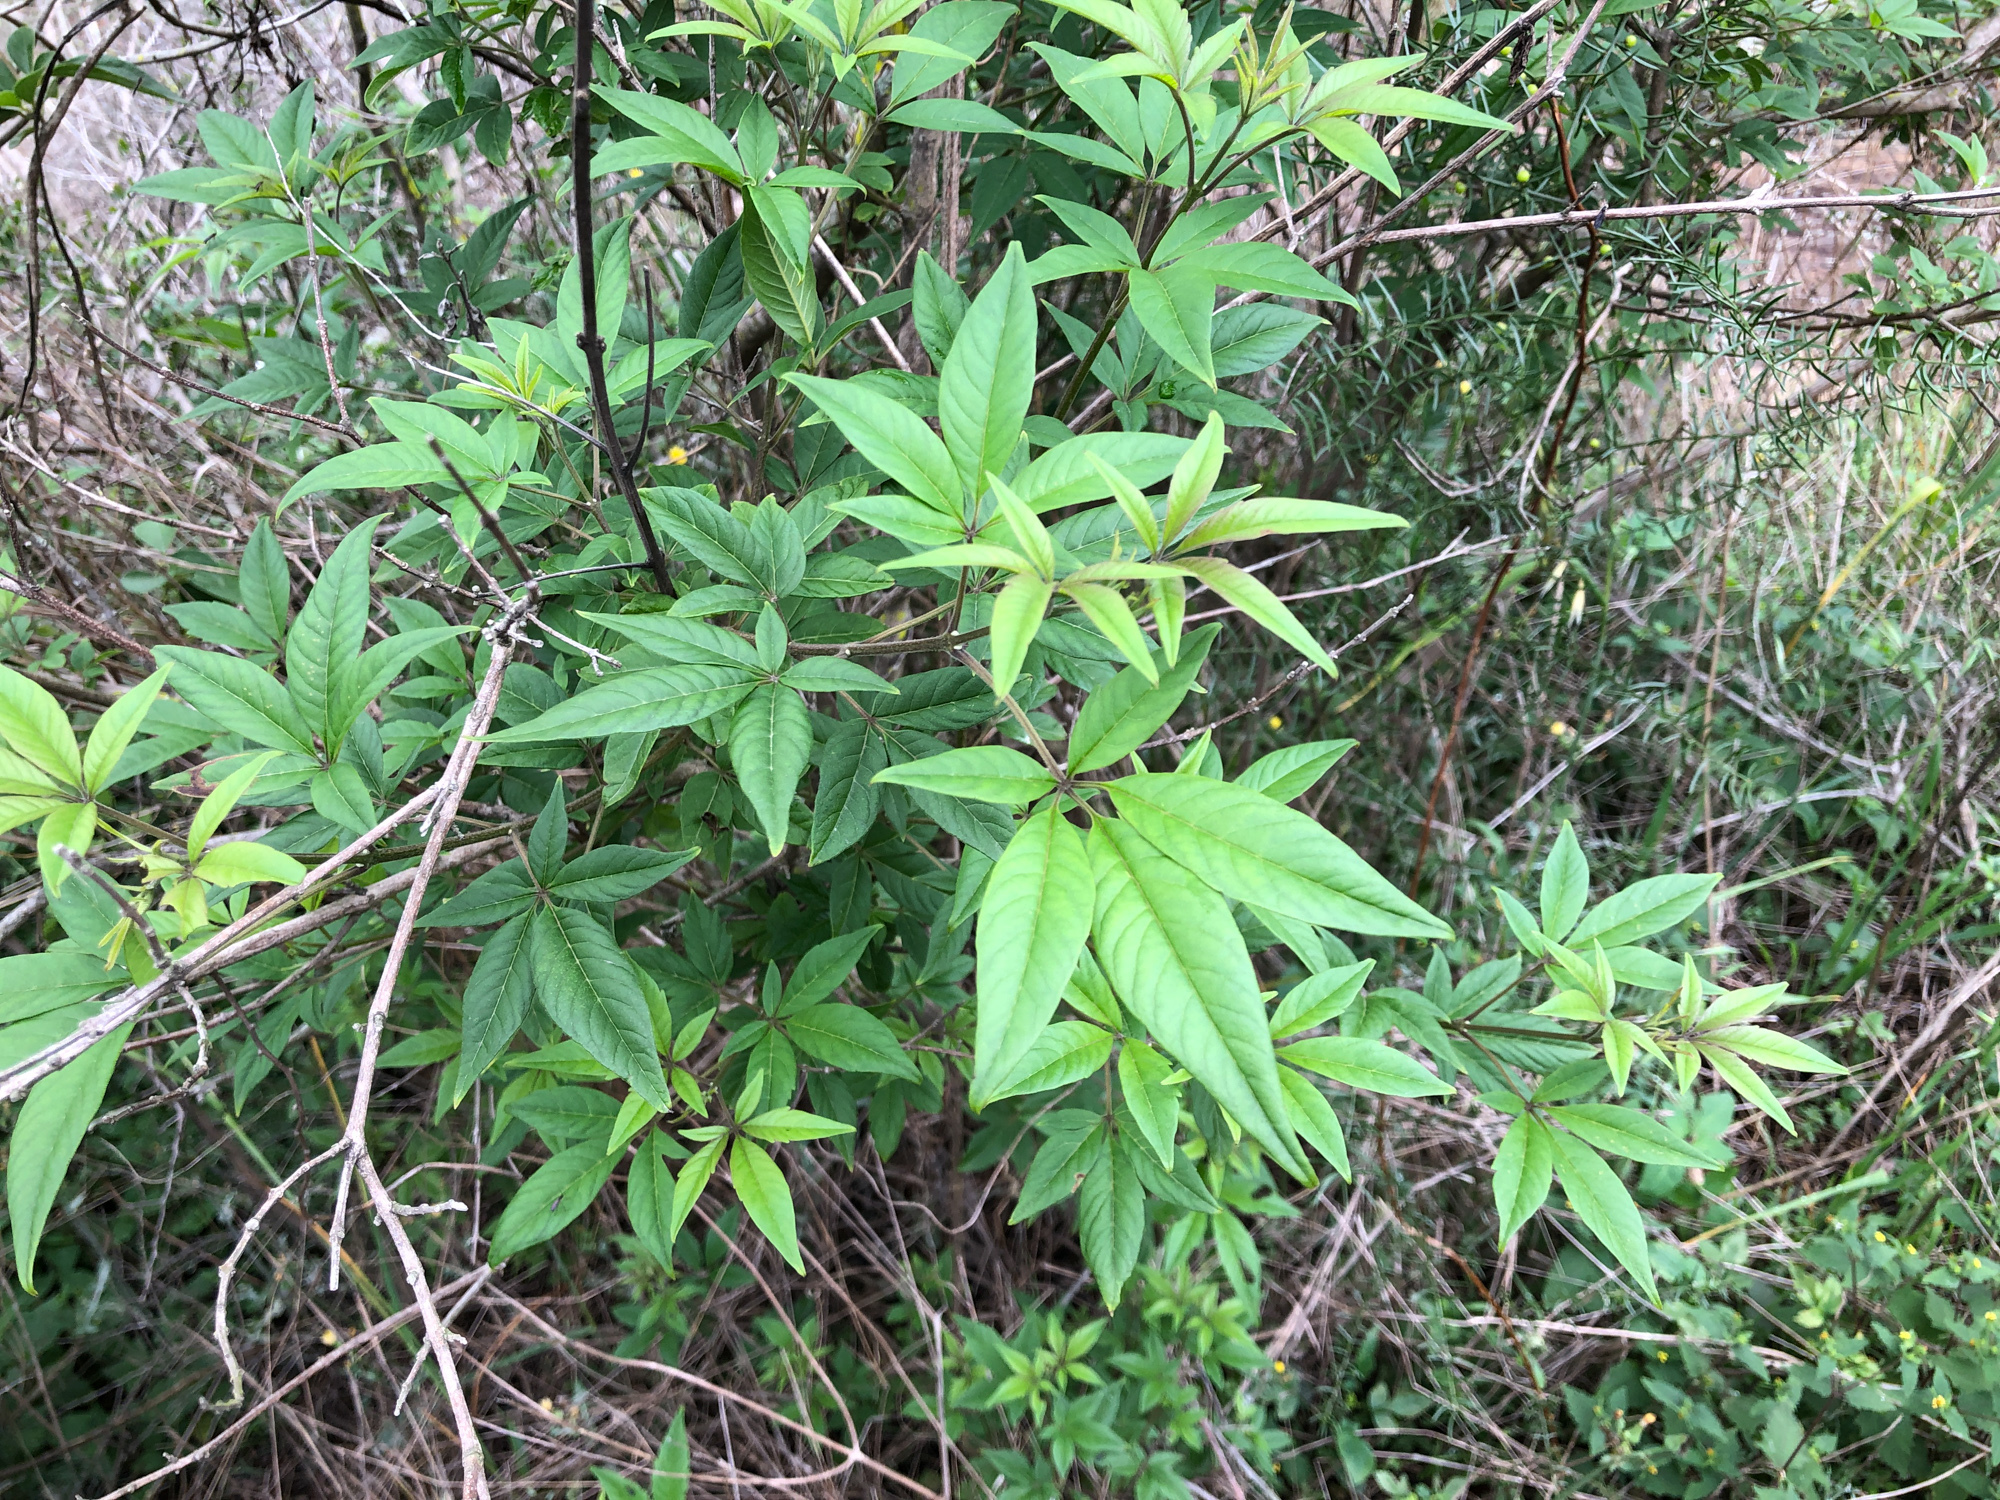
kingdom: Plantae
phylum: Tracheophyta
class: Magnoliopsida
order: Lamiales
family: Lamiaceae
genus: Vitex
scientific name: Vitex negundo
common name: Chinese chastetree
